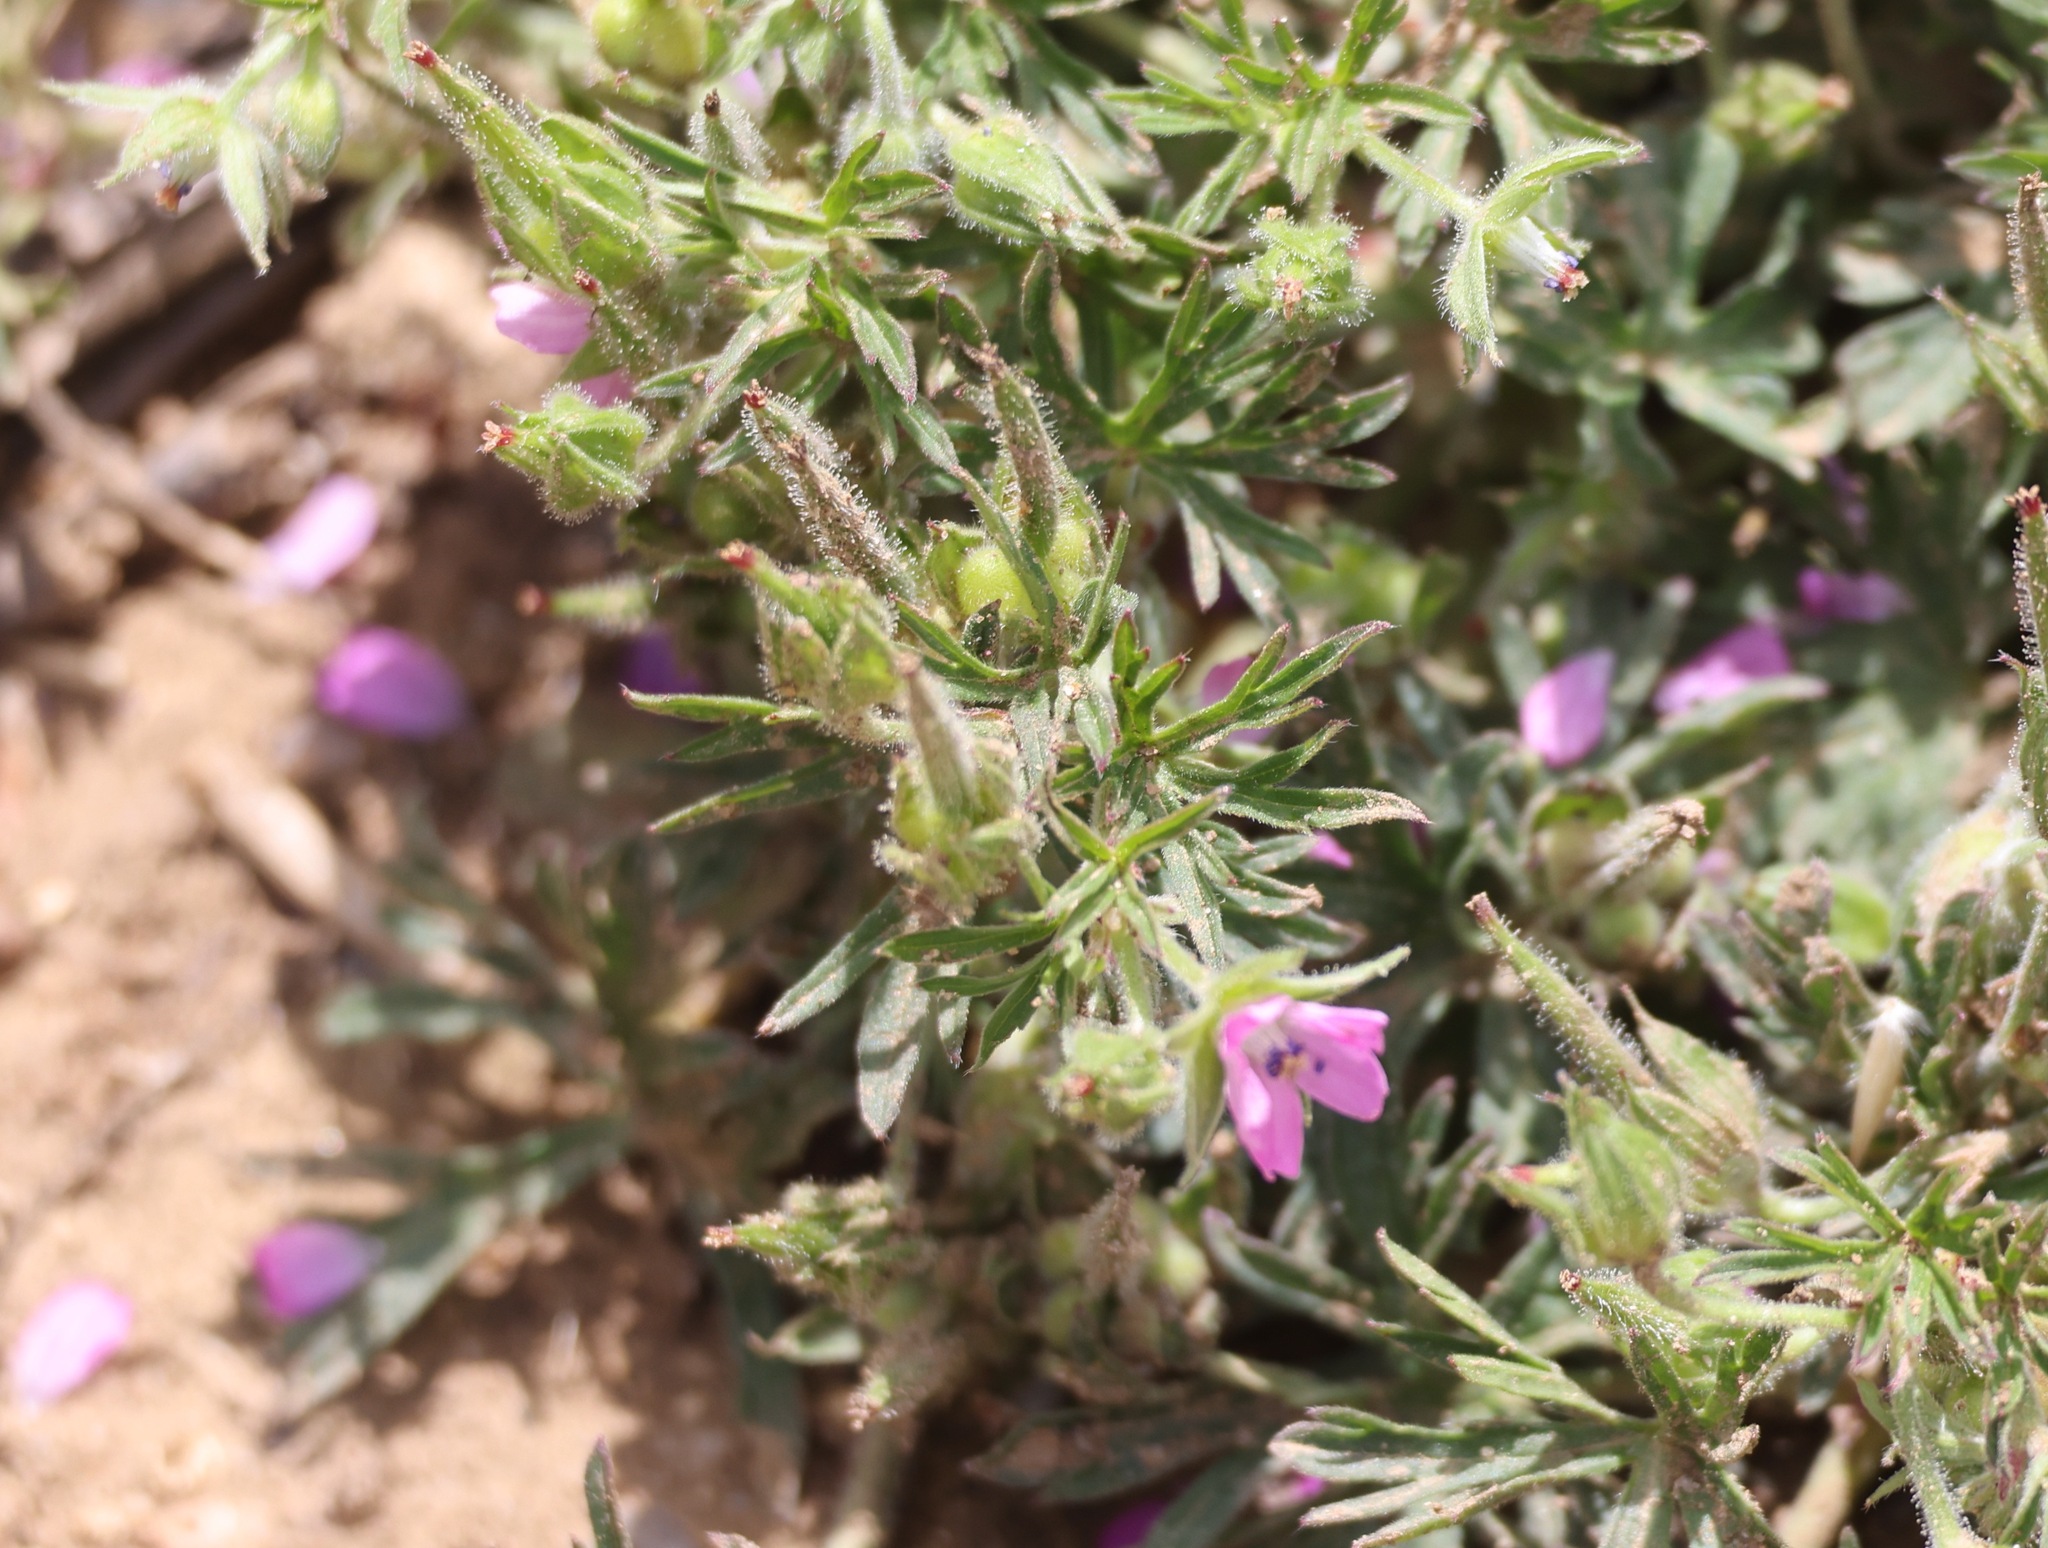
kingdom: Plantae
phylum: Tracheophyta
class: Magnoliopsida
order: Geraniales
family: Geraniaceae
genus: Geranium
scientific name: Geranium dissectum
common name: Cut-leaved crane's-bill
